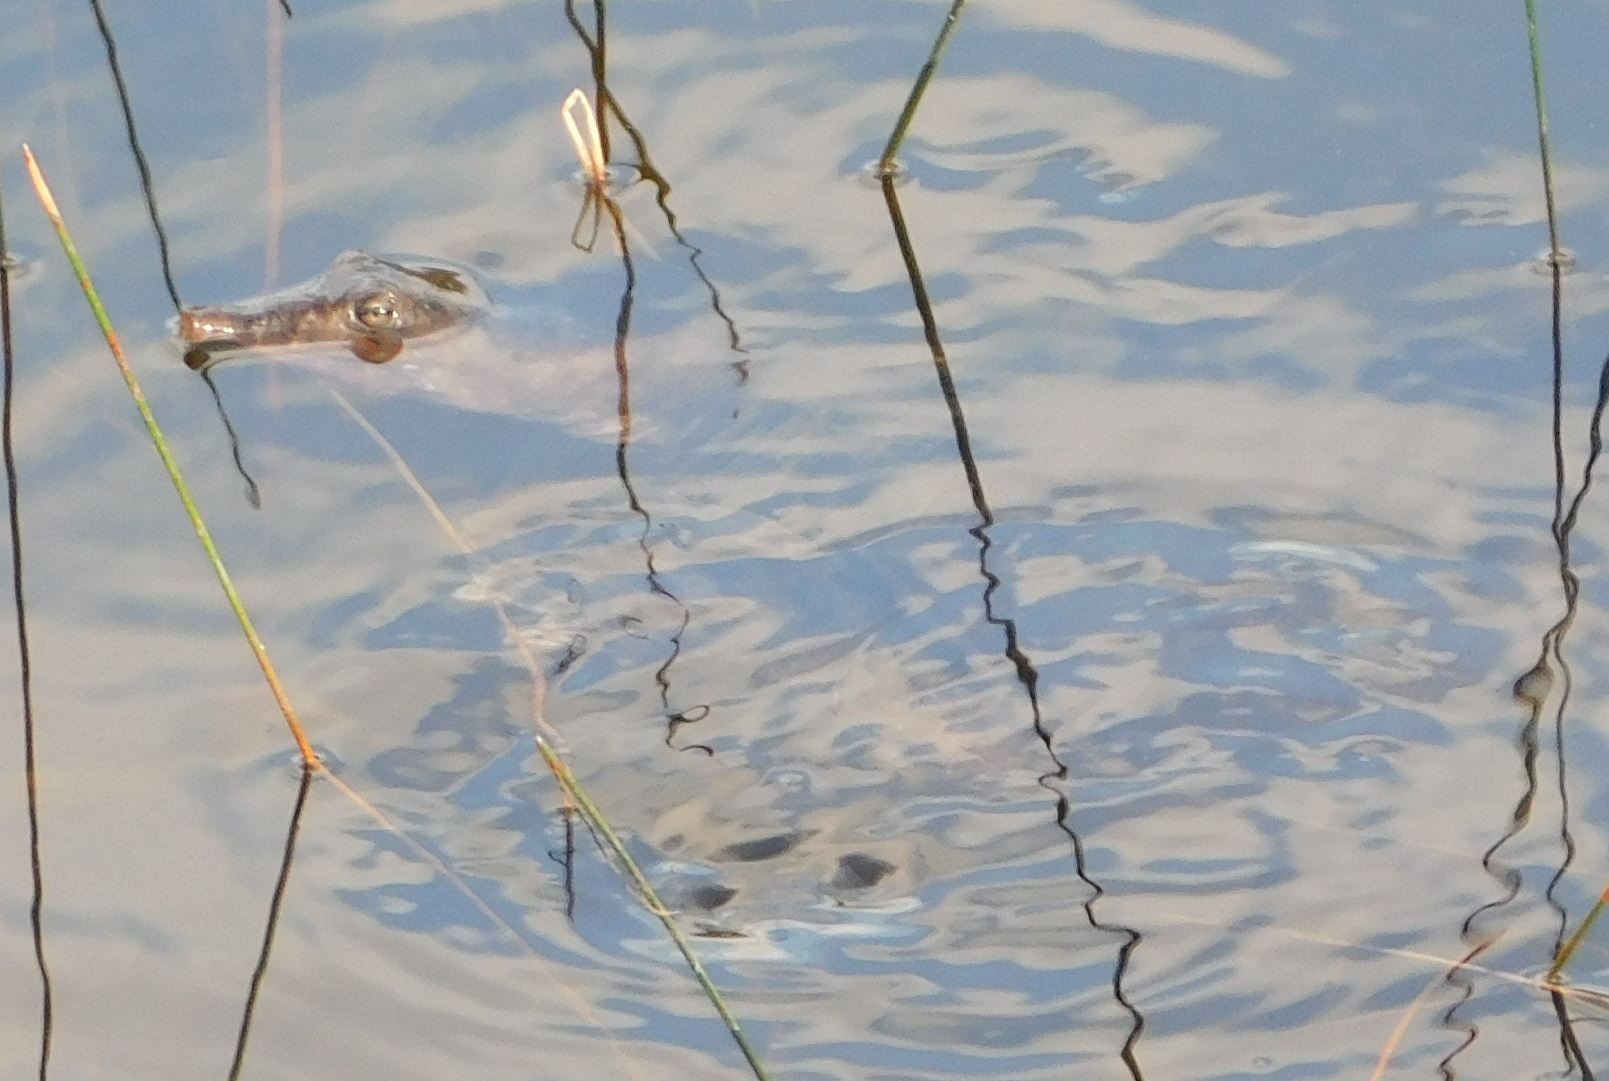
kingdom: Animalia
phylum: Chordata
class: Testudines
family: Trionychidae
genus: Apalone
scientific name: Apalone ferox
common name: Florida softshell turtle
